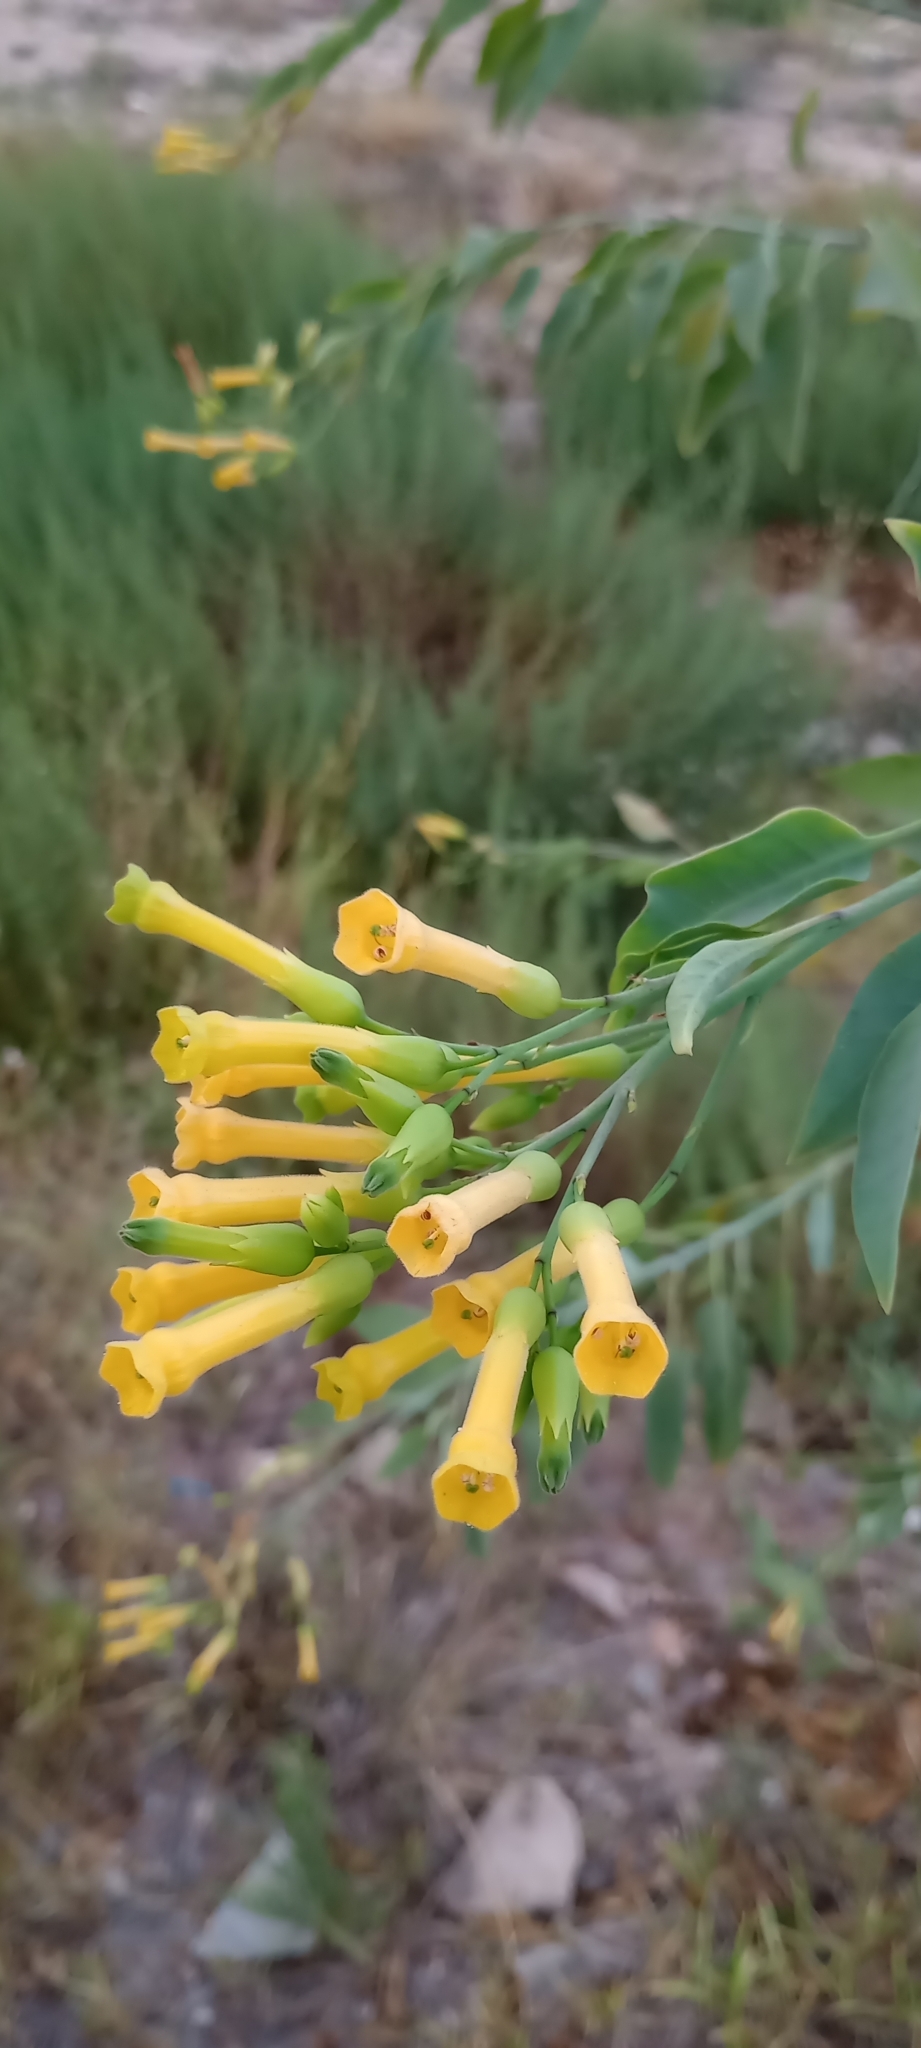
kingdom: Plantae
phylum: Tracheophyta
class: Magnoliopsida
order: Solanales
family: Solanaceae
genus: Nicotiana
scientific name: Nicotiana glauca
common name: Tree tobacco
